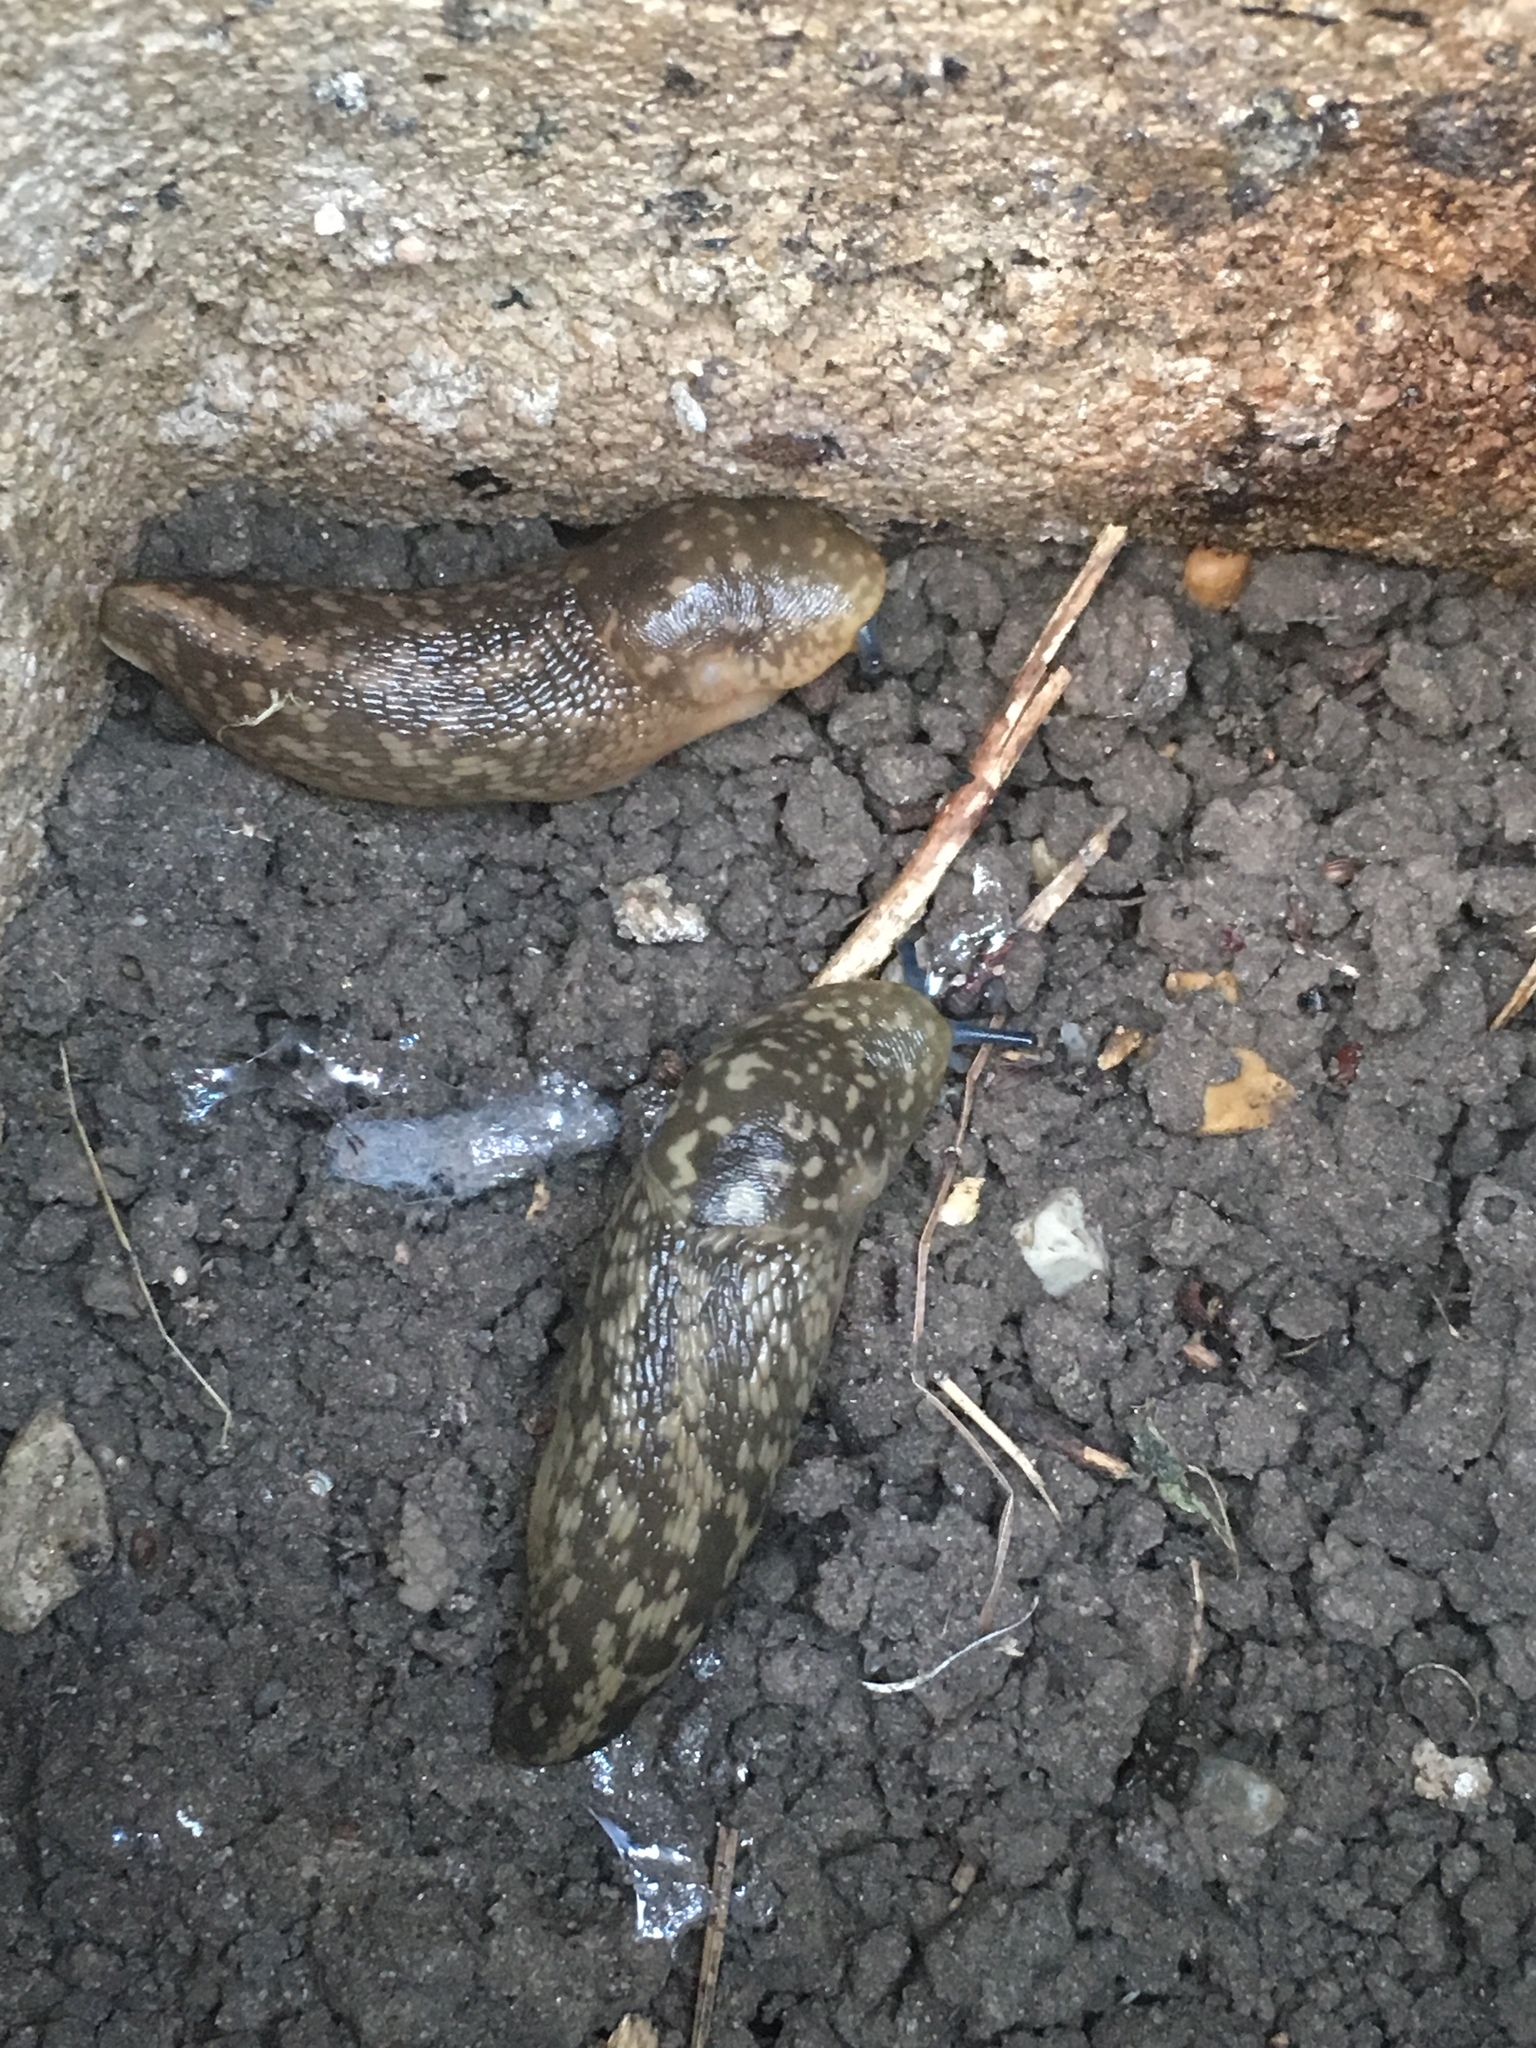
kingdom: Animalia
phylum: Mollusca
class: Gastropoda
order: Stylommatophora
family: Limacidae
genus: Limacus
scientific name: Limacus flavus
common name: Yellow gardenslug
